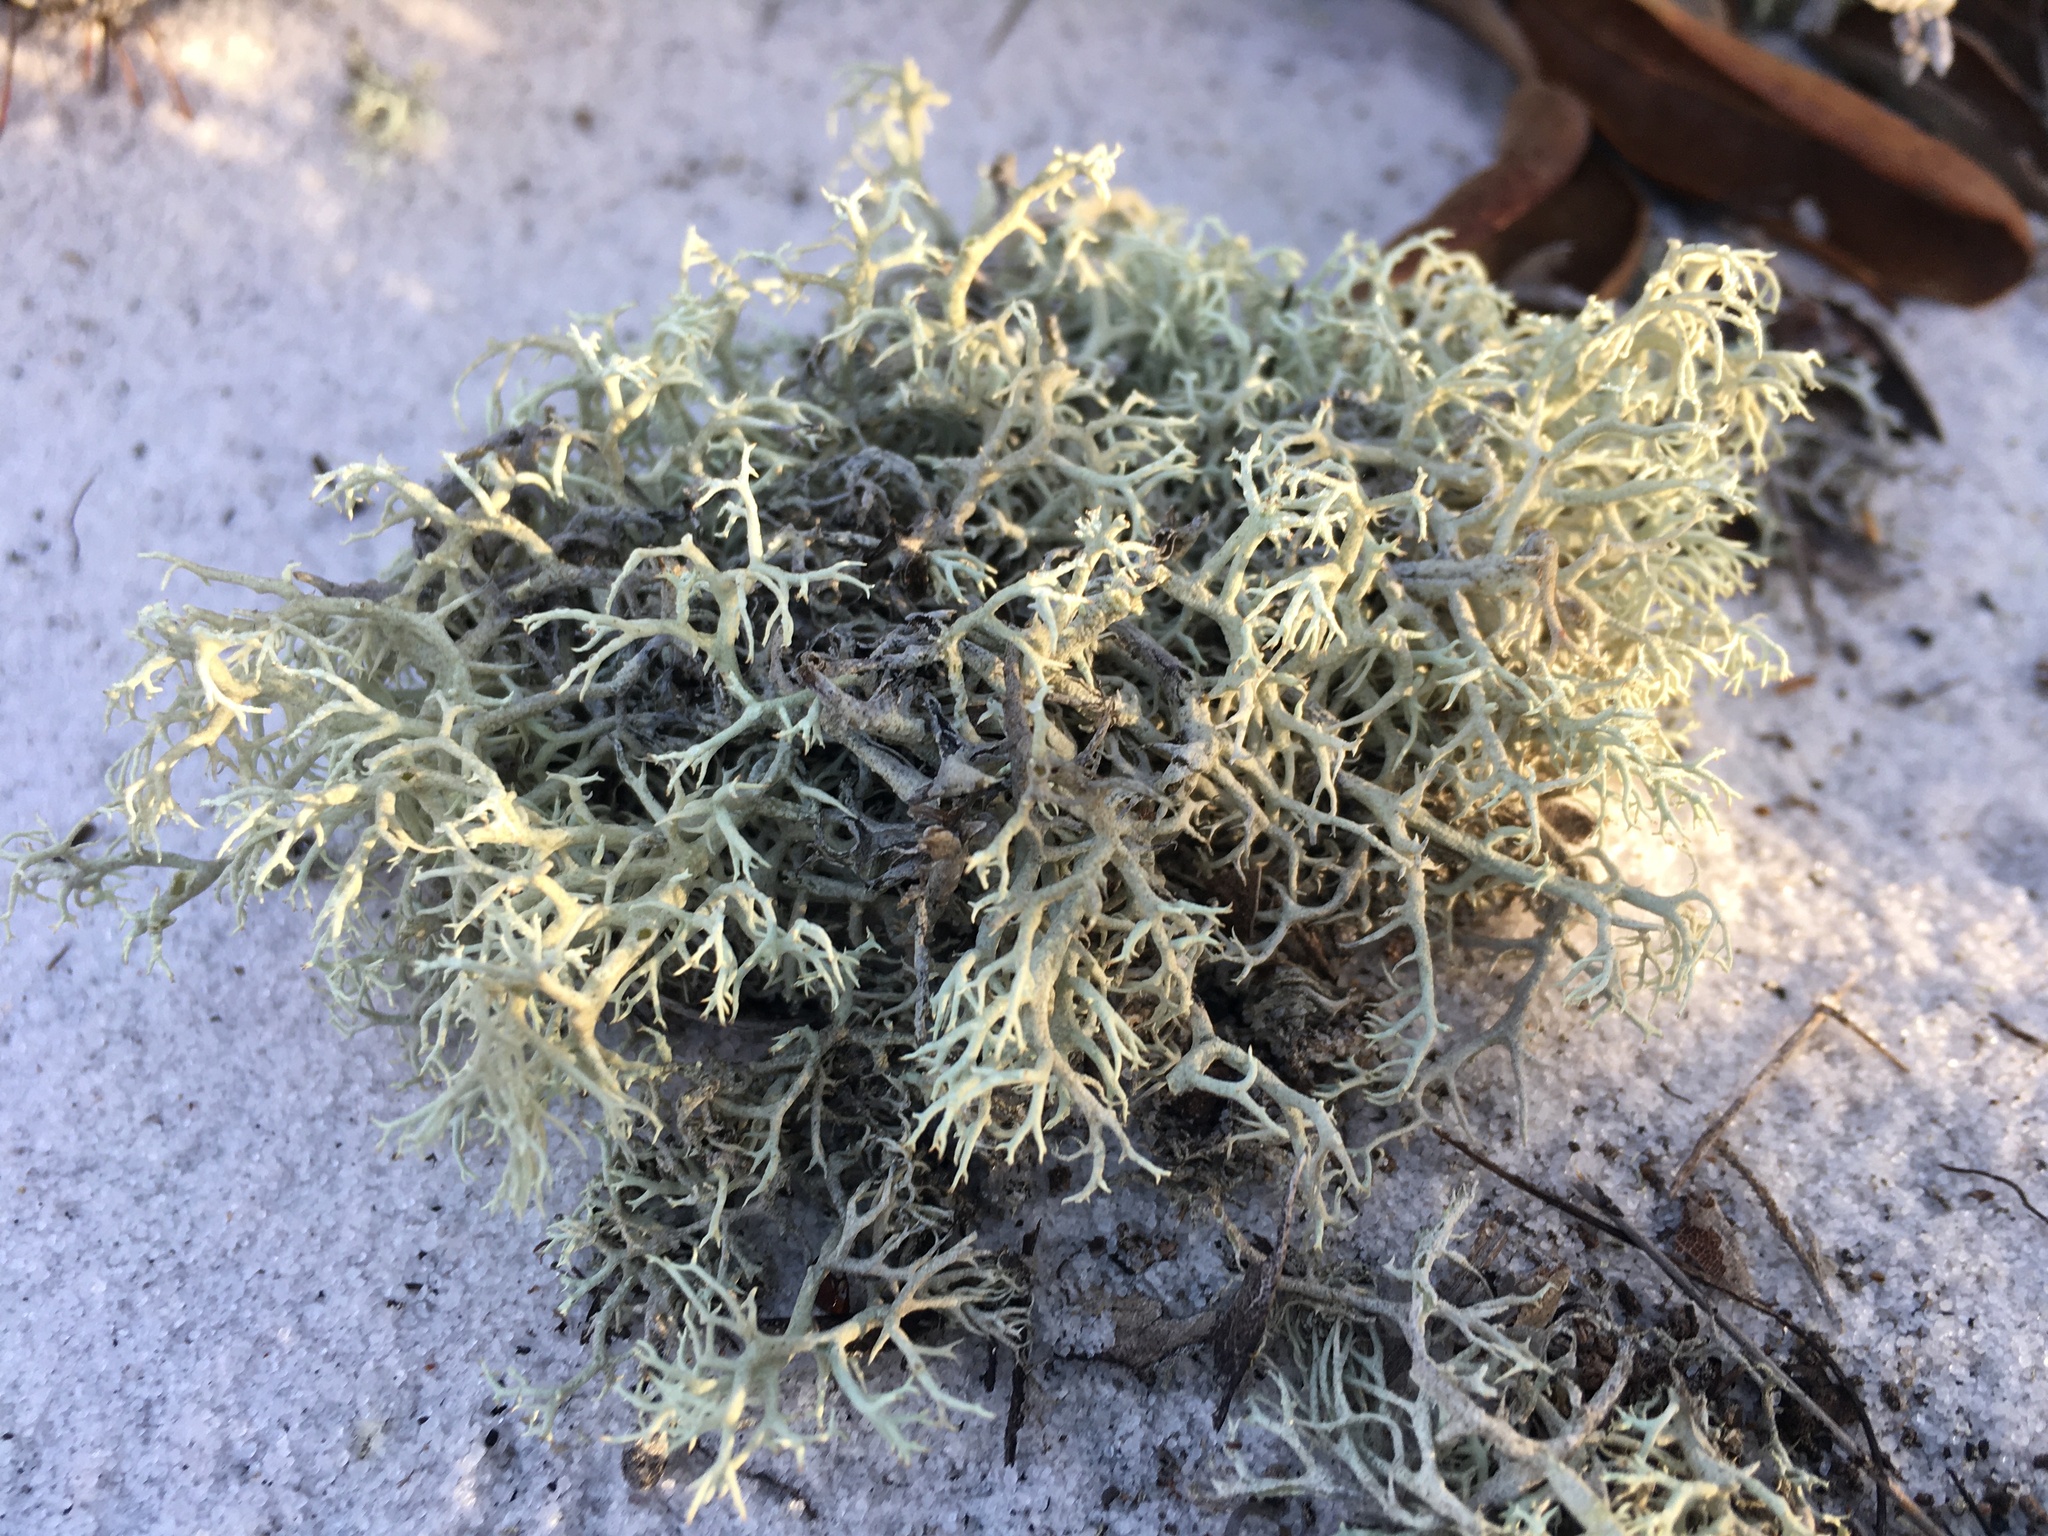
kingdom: Fungi
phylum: Ascomycota
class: Lecanoromycetes
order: Lecanorales
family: Cladoniaceae
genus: Cladonia
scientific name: Cladonia pachycladodes
